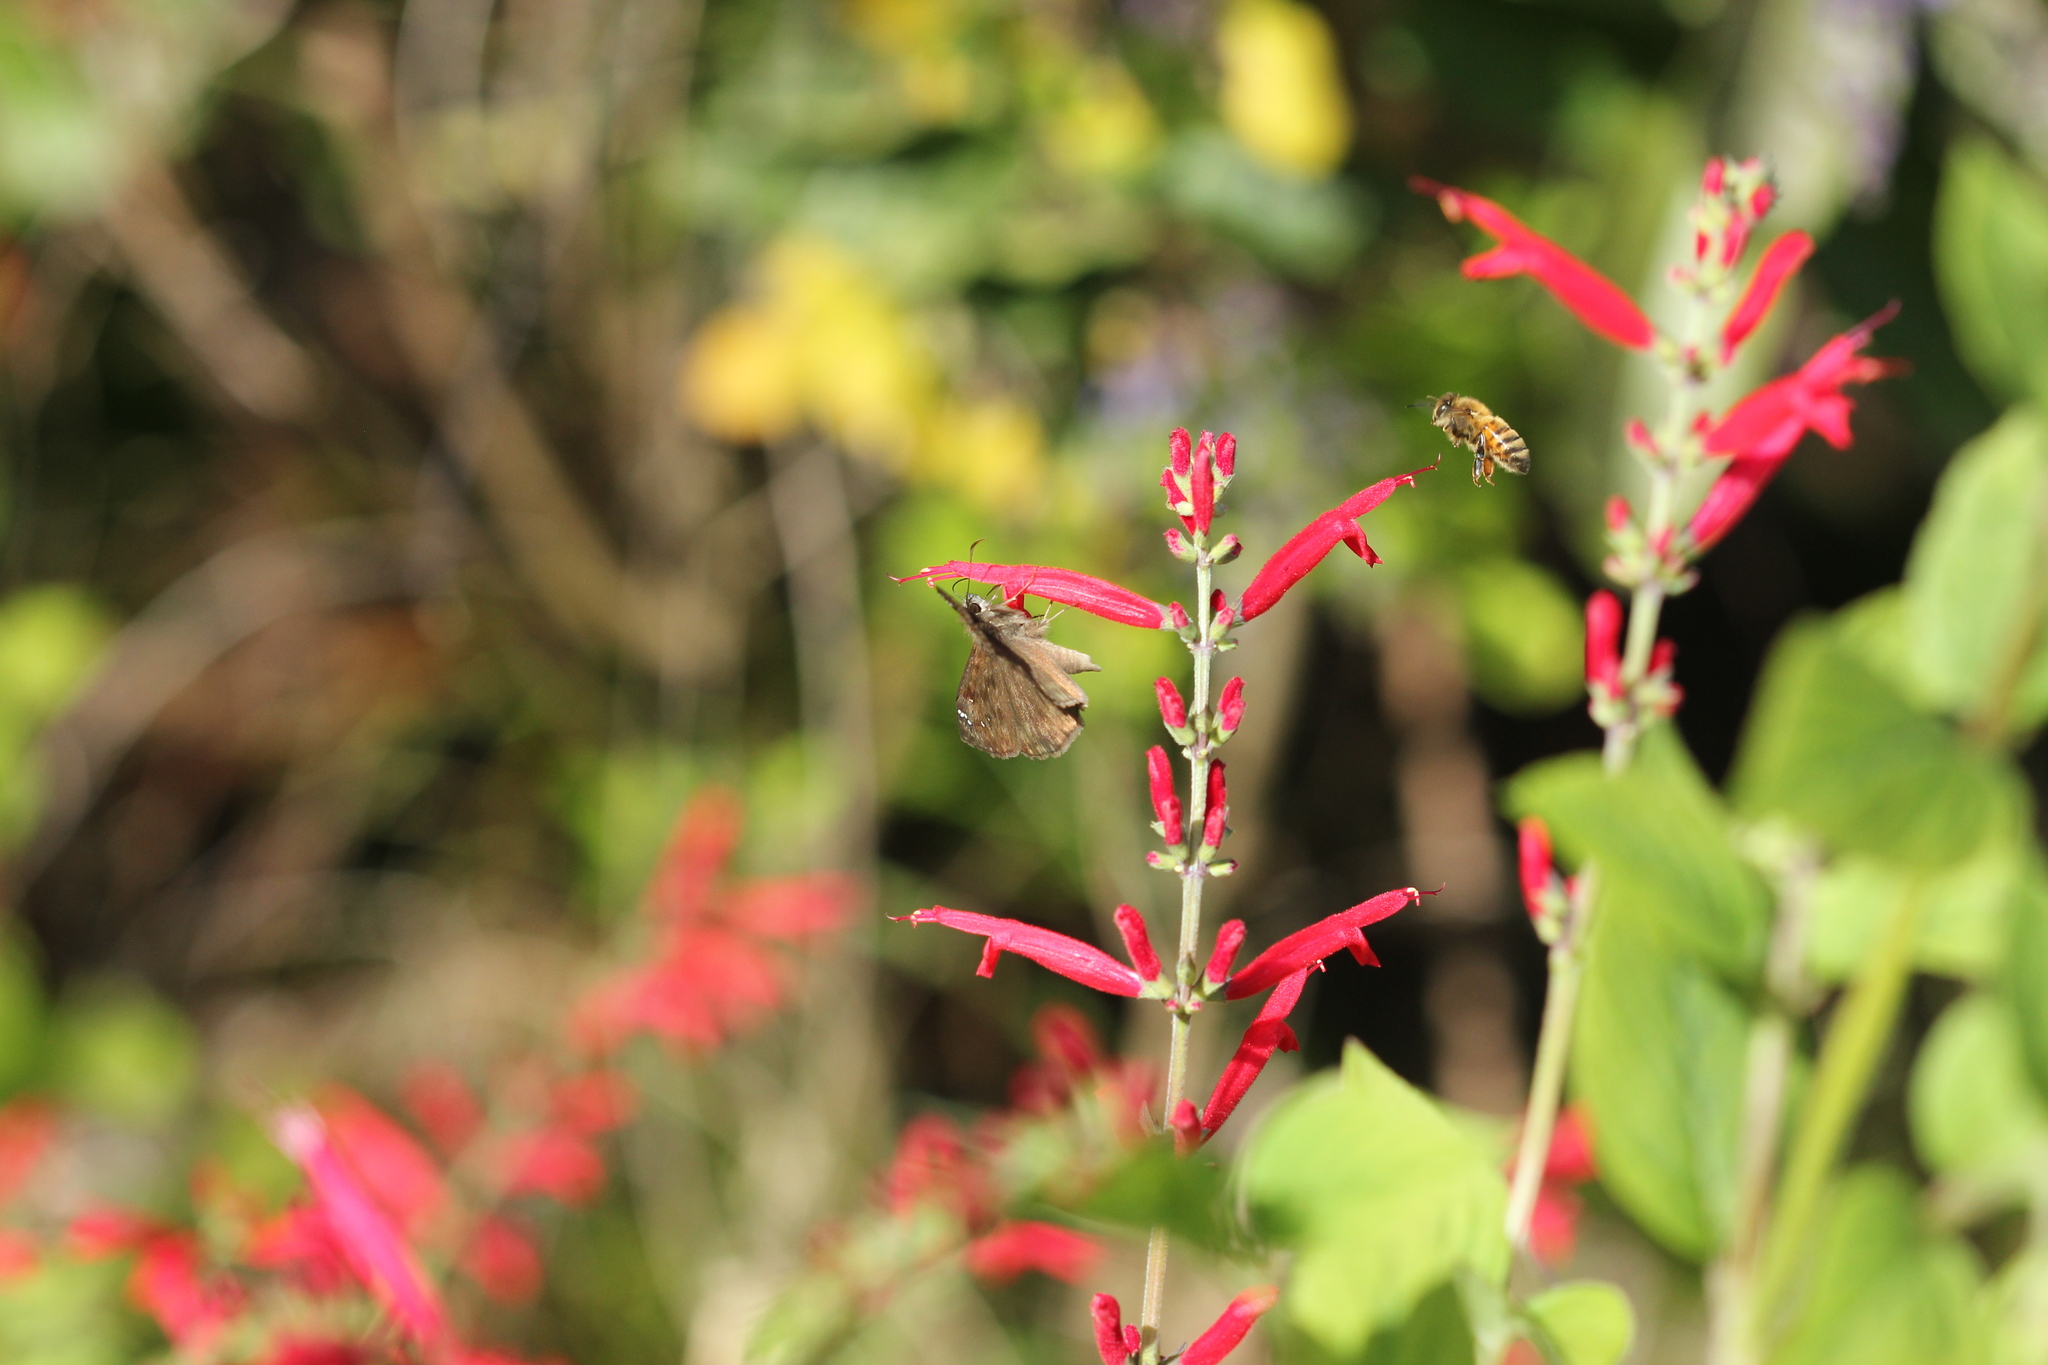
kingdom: Animalia
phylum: Arthropoda
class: Insecta
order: Lepidoptera
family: Hesperiidae
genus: Erynnis
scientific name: Erynnis horatius
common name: Horace's duskywing
